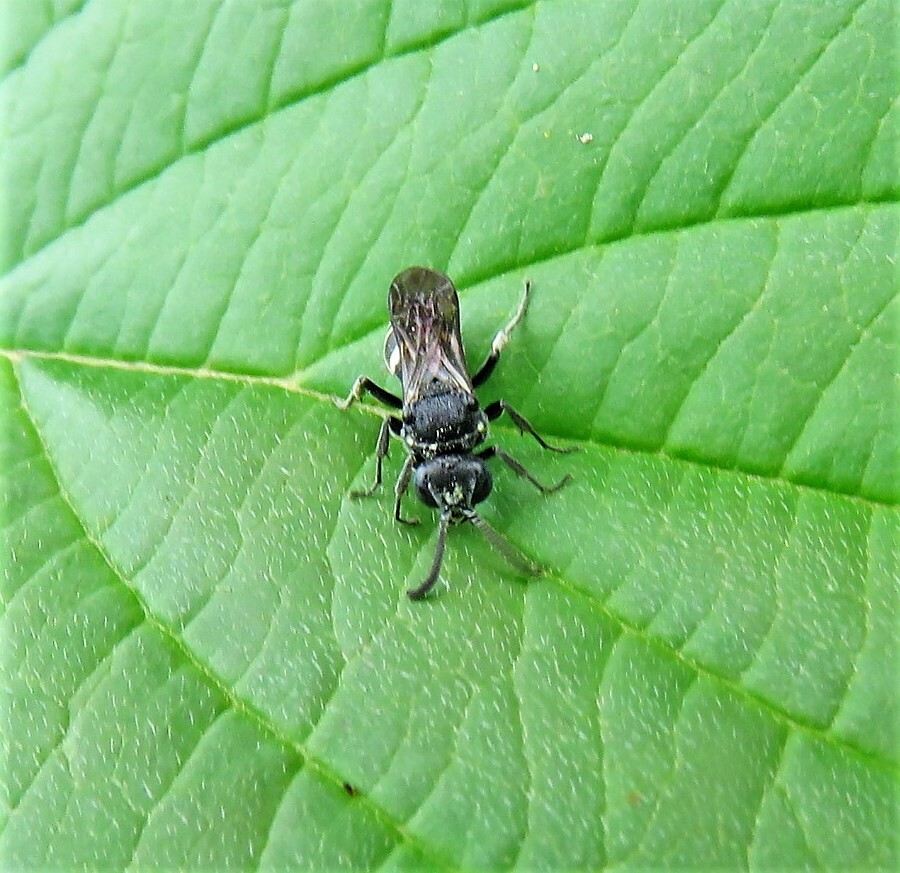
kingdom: Animalia
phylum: Arthropoda
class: Insecta
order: Hymenoptera
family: Crabronidae
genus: Nysson
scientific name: Nysson lateralis
